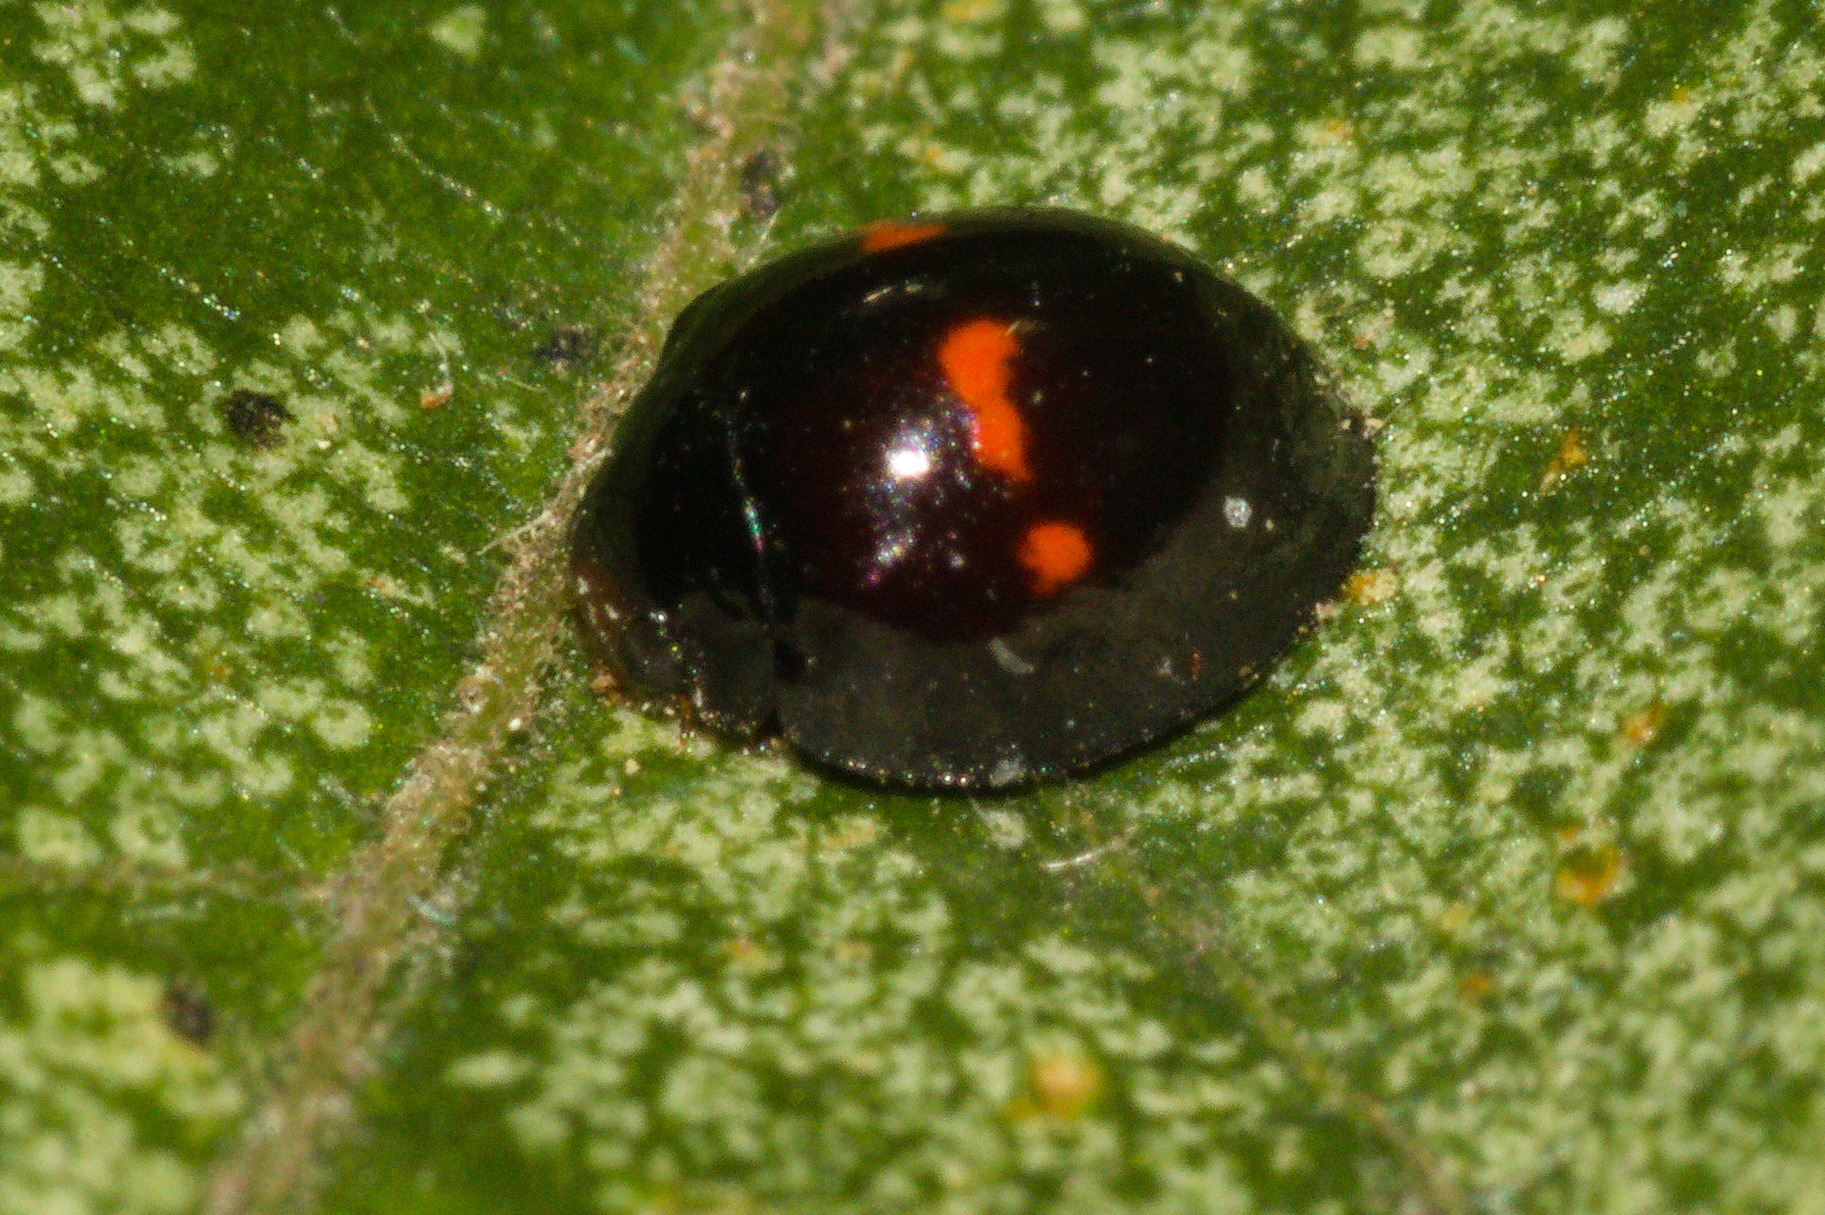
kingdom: Animalia
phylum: Arthropoda
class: Insecta
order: Coleoptera
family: Coccinellidae
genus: Chilocorus
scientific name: Chilocorus bipustulatus
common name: Heather ladybird
